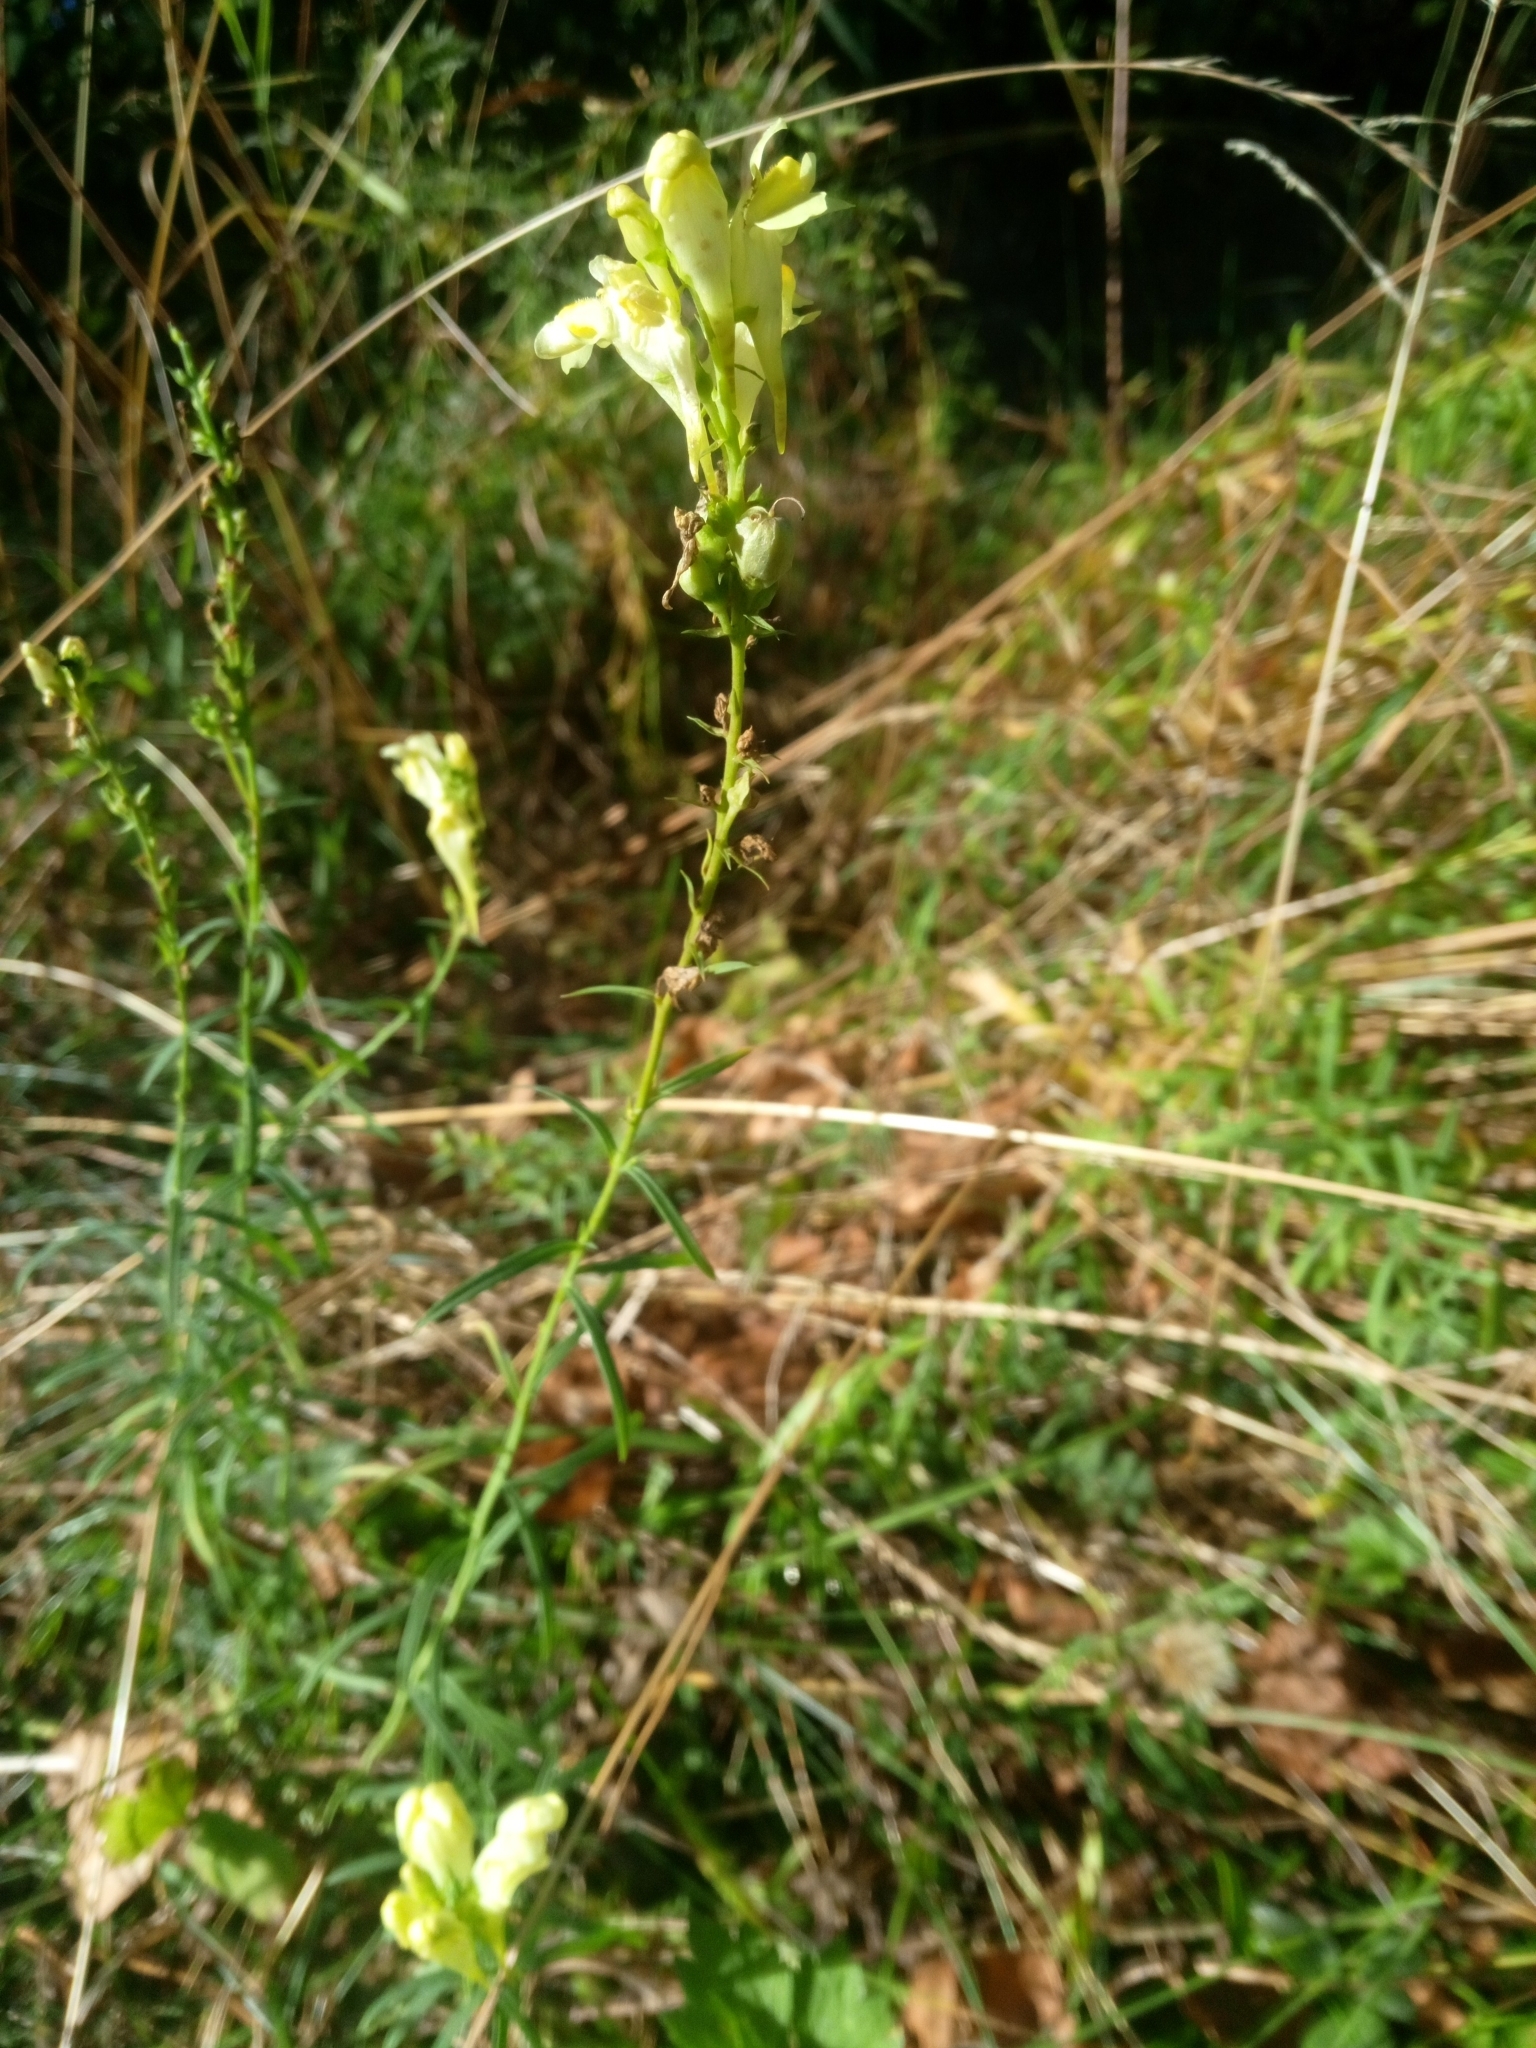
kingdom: Plantae
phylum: Tracheophyta
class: Magnoliopsida
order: Lamiales
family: Plantaginaceae
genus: Linaria
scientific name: Linaria vulgaris
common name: Butter and eggs
